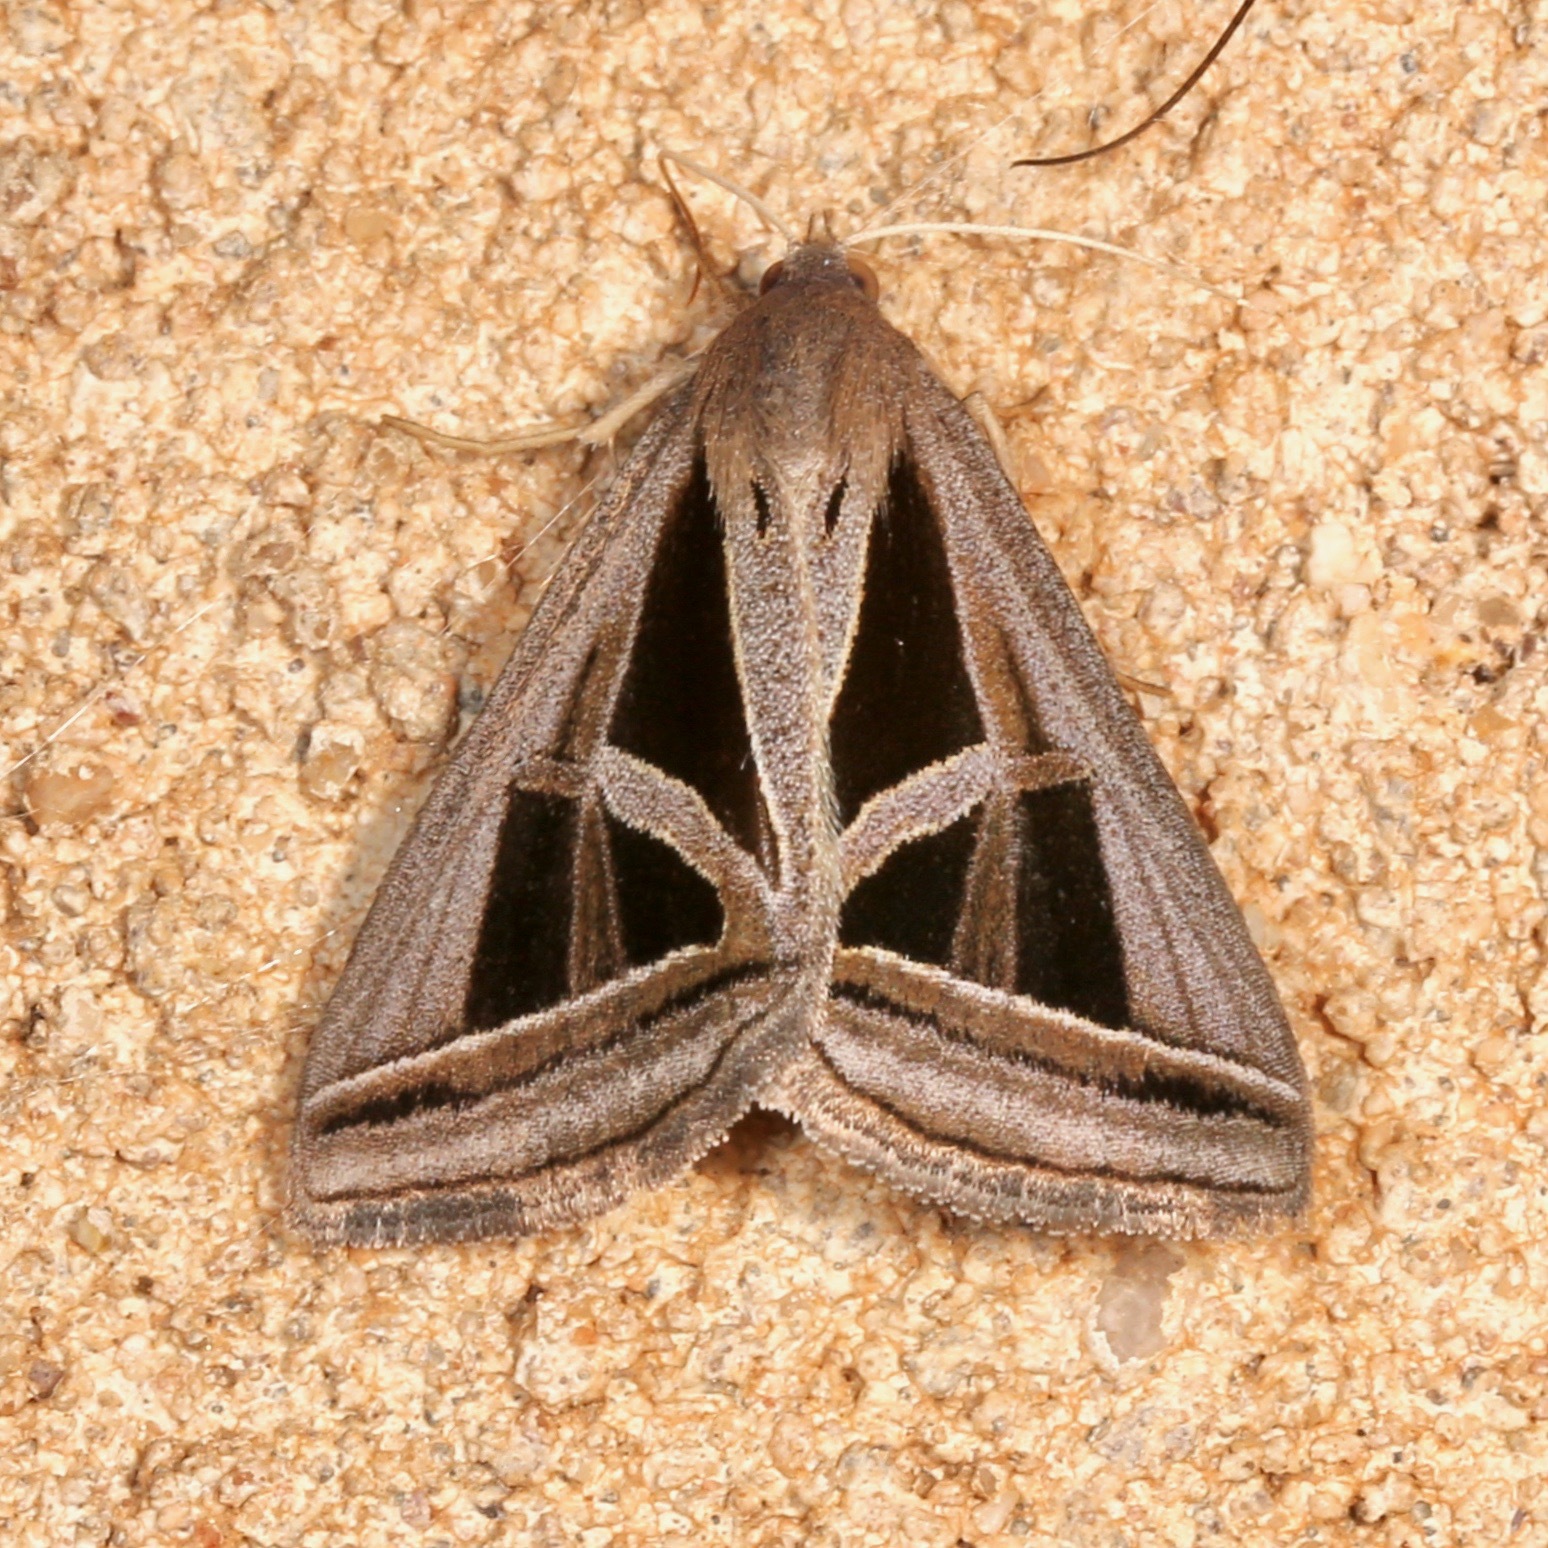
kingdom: Animalia
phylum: Arthropoda
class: Insecta
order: Lepidoptera
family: Erebidae
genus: Callistege
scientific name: Callistege triangula
